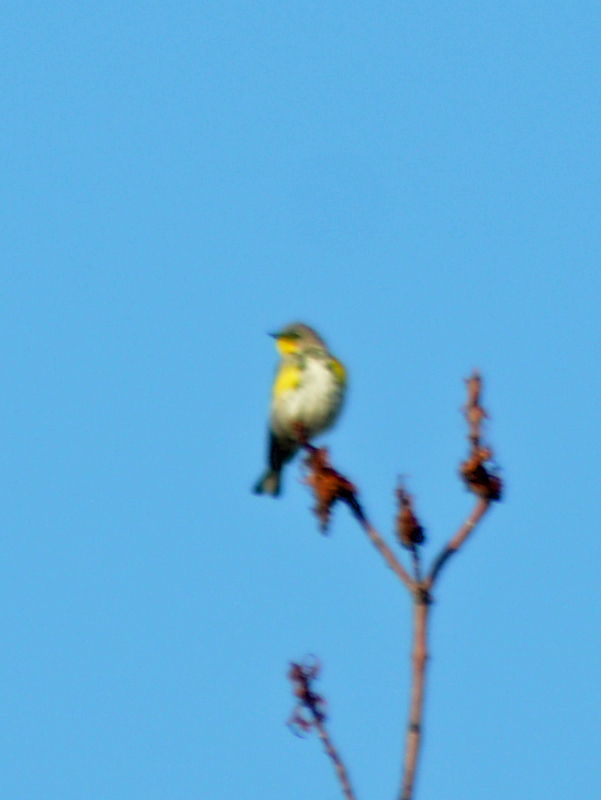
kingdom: Animalia
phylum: Chordata
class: Aves
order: Passeriformes
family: Parulidae
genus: Setophaga
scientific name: Setophaga coronata
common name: Myrtle warbler
